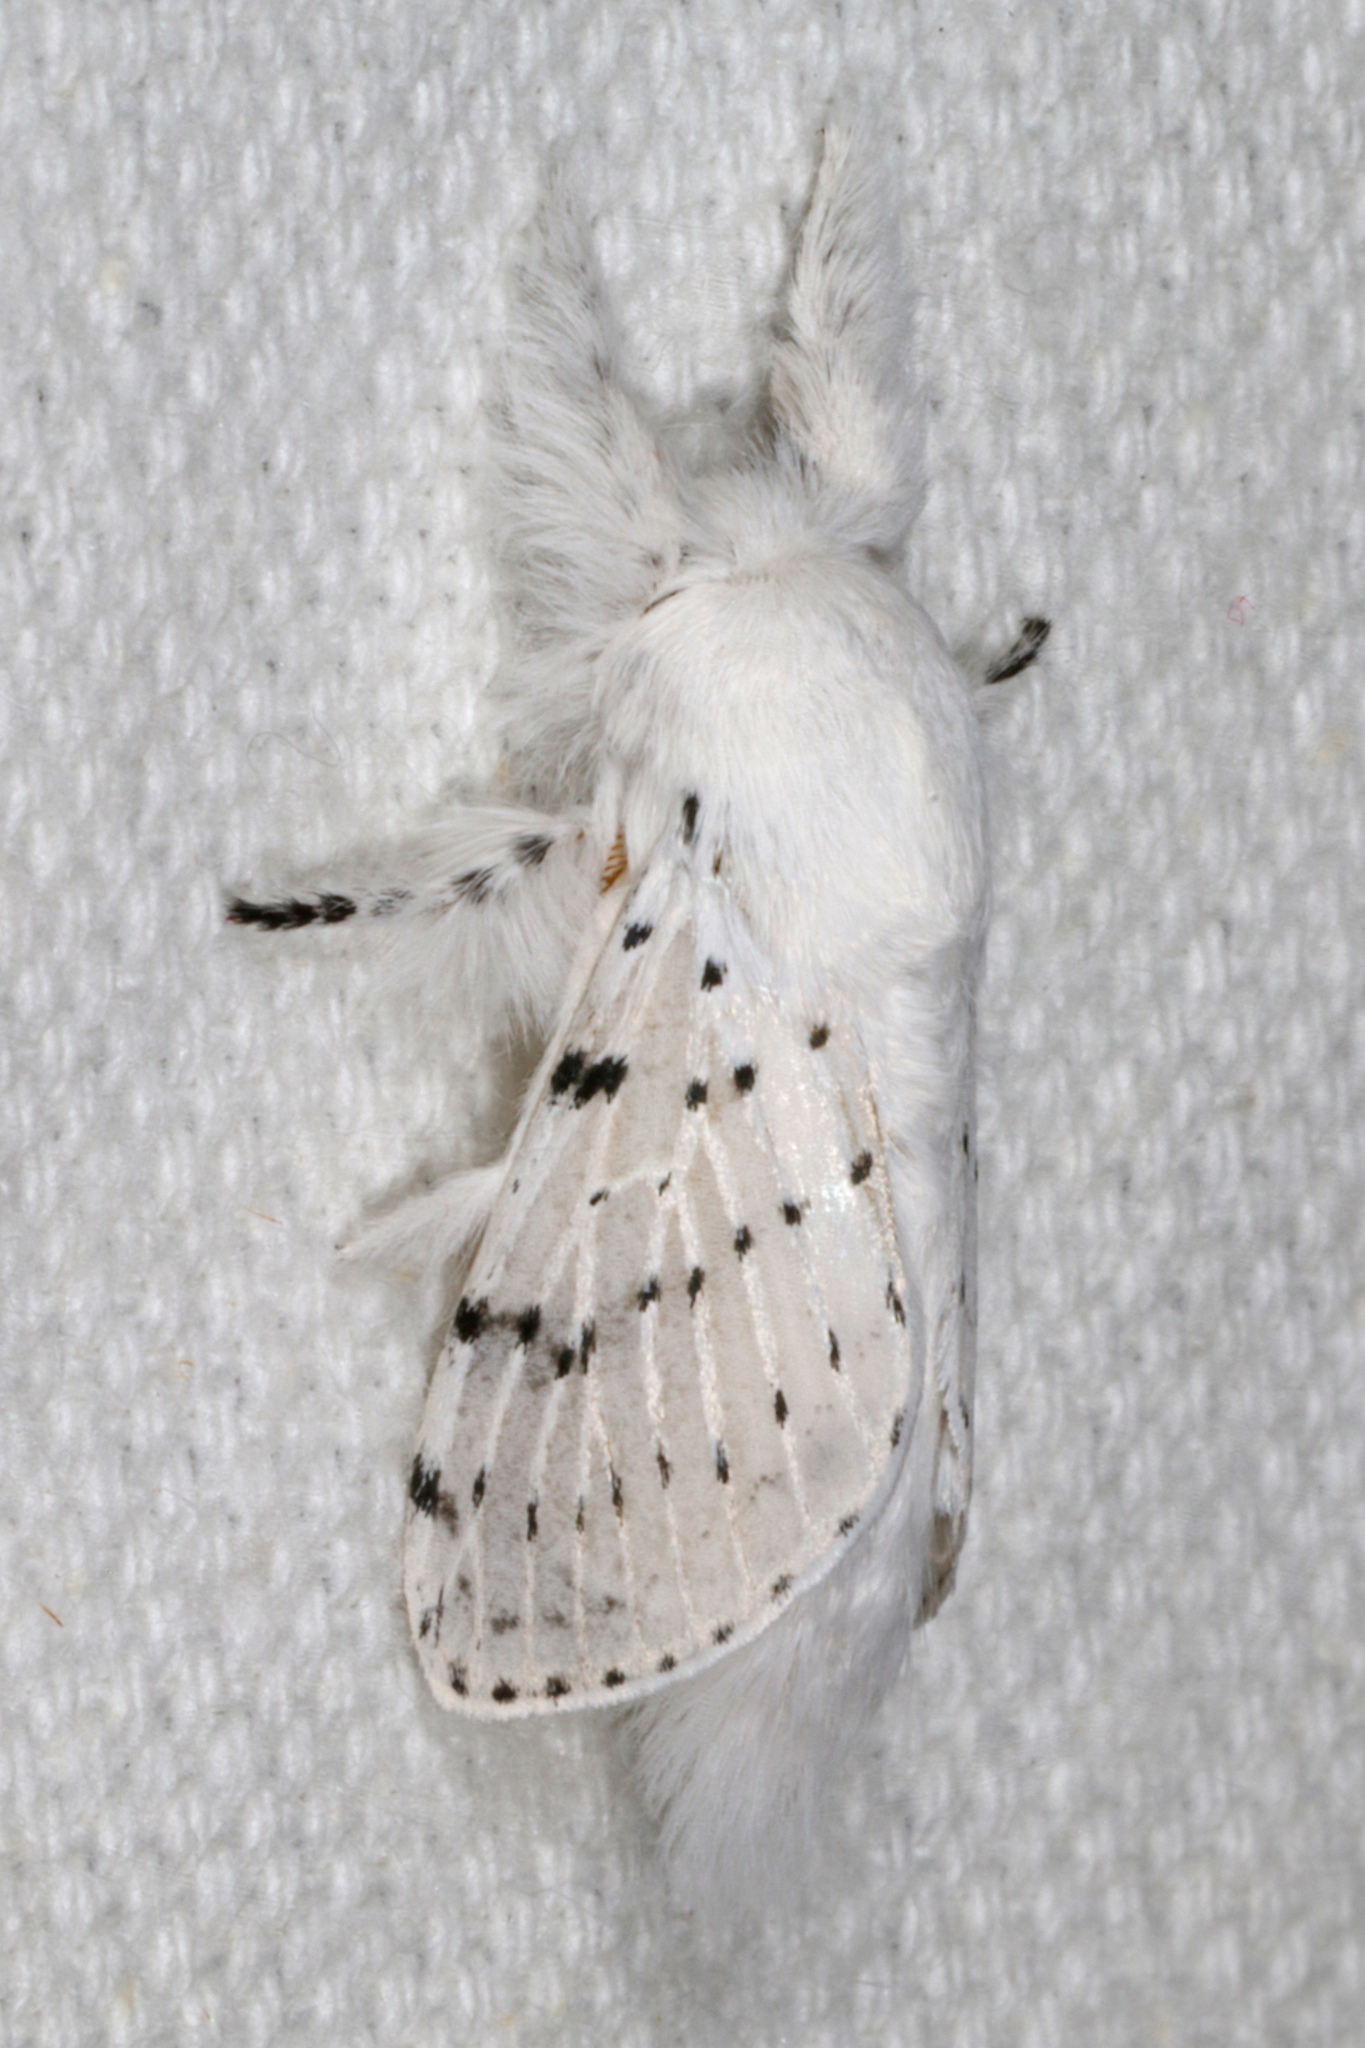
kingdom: Animalia
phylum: Arthropoda
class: Insecta
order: Lepidoptera
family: Lasiocampidae
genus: Artace
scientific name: Artace cribrarius
